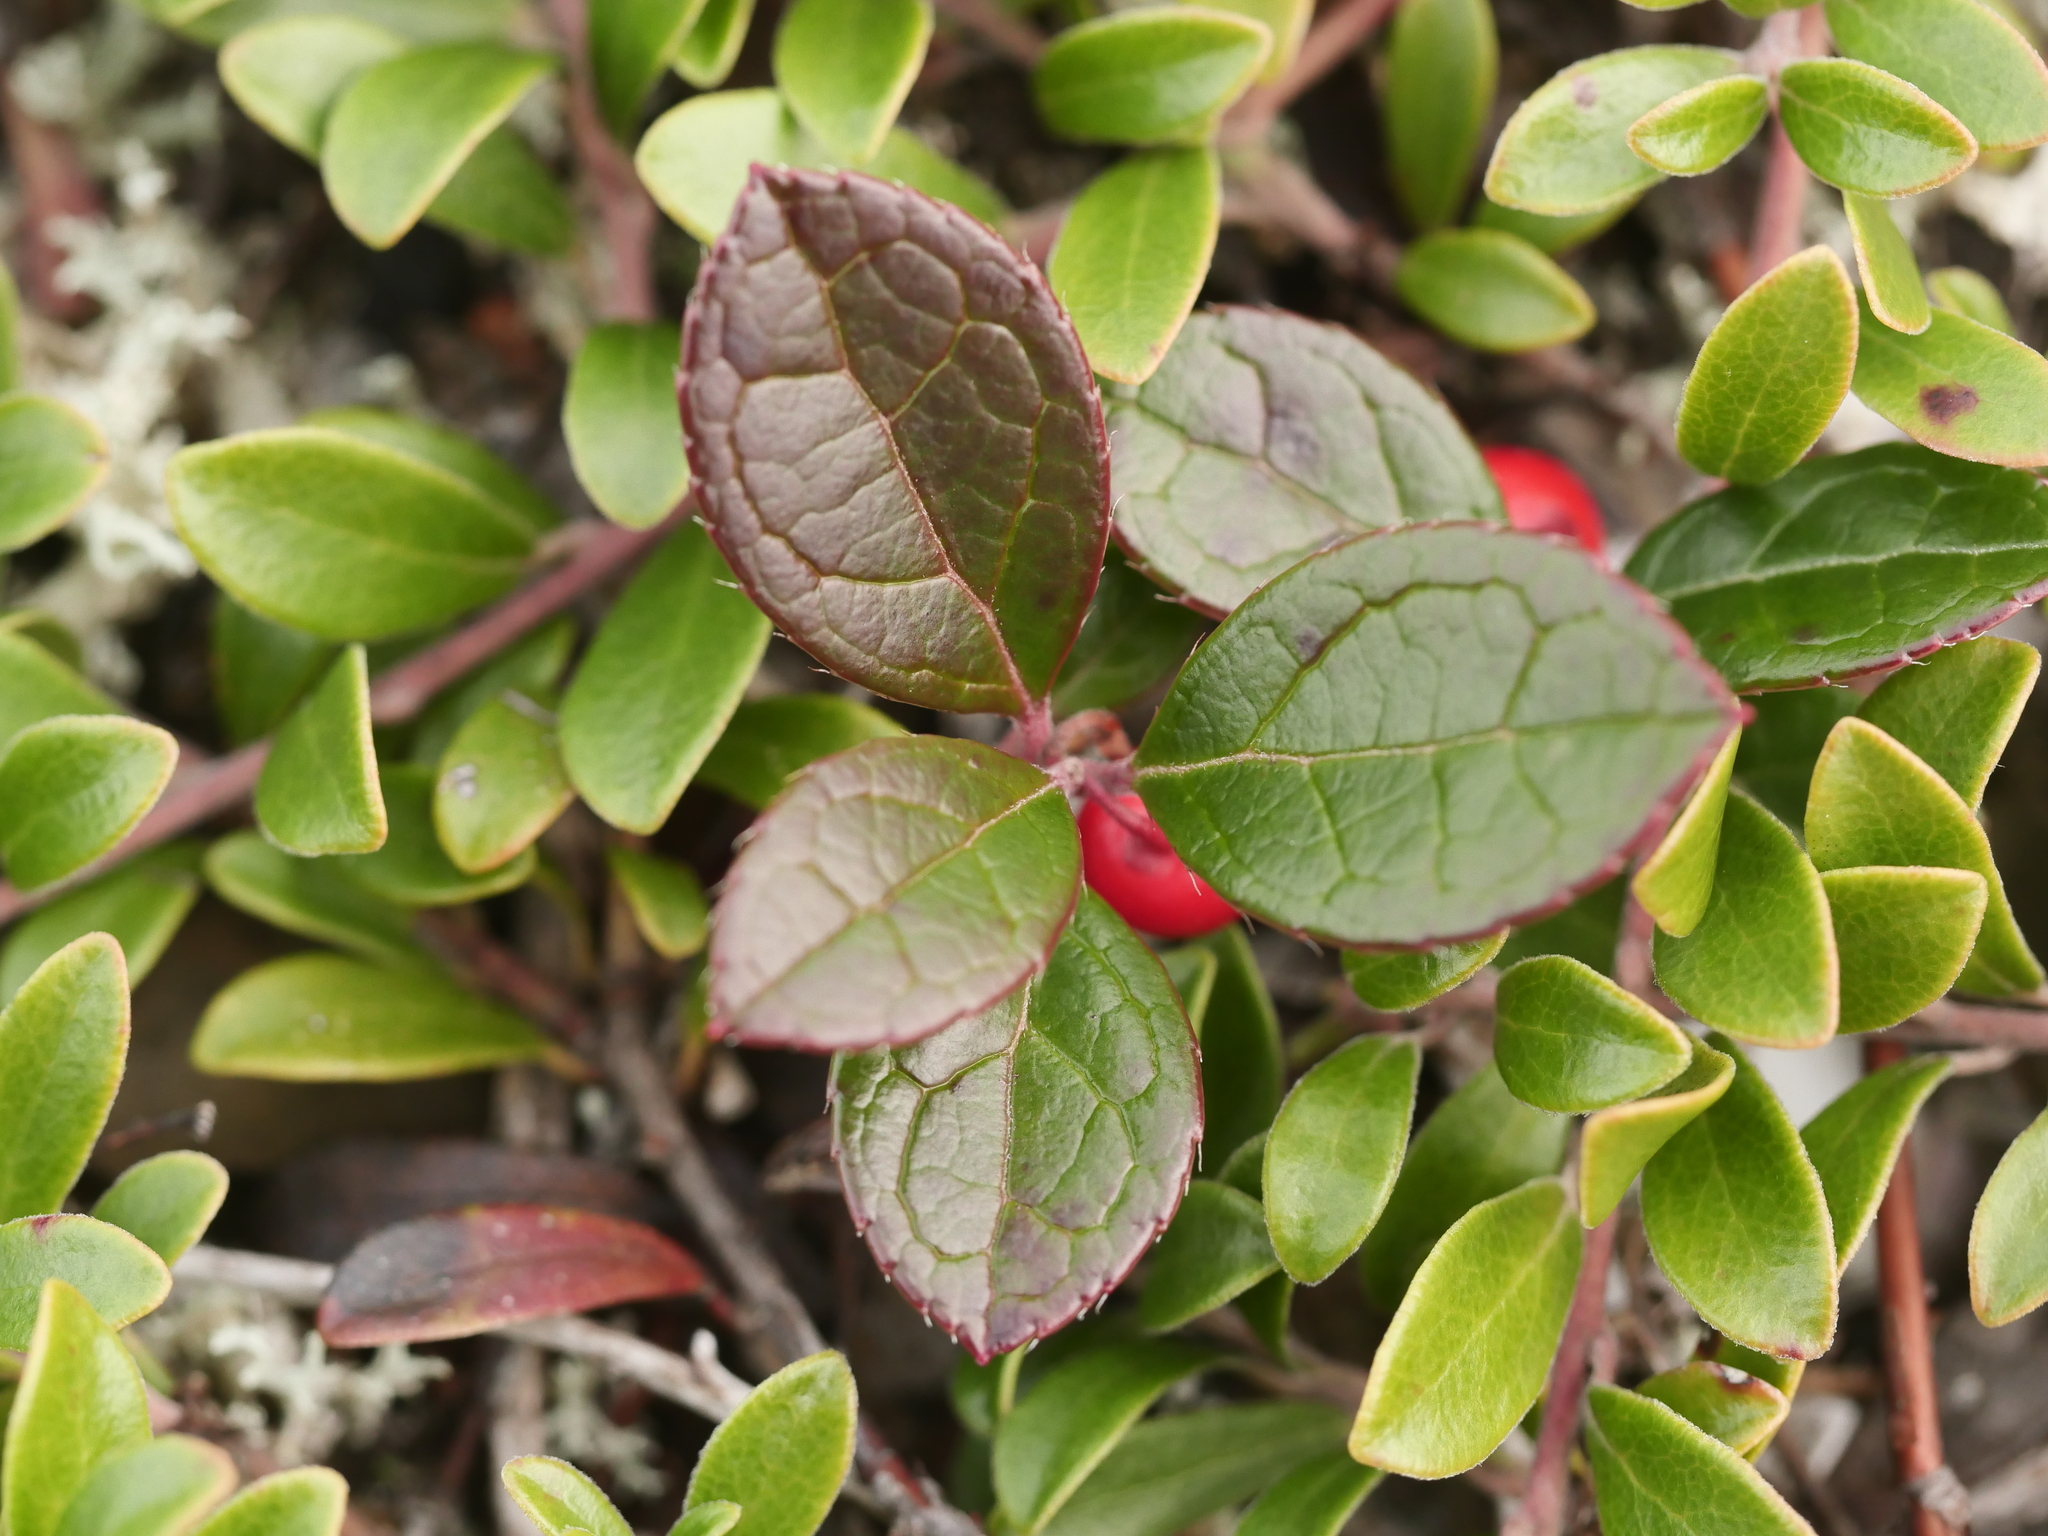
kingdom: Plantae
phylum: Tracheophyta
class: Magnoliopsida
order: Ericales
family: Ericaceae
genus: Gaultheria
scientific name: Gaultheria procumbens
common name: Checkerberry
